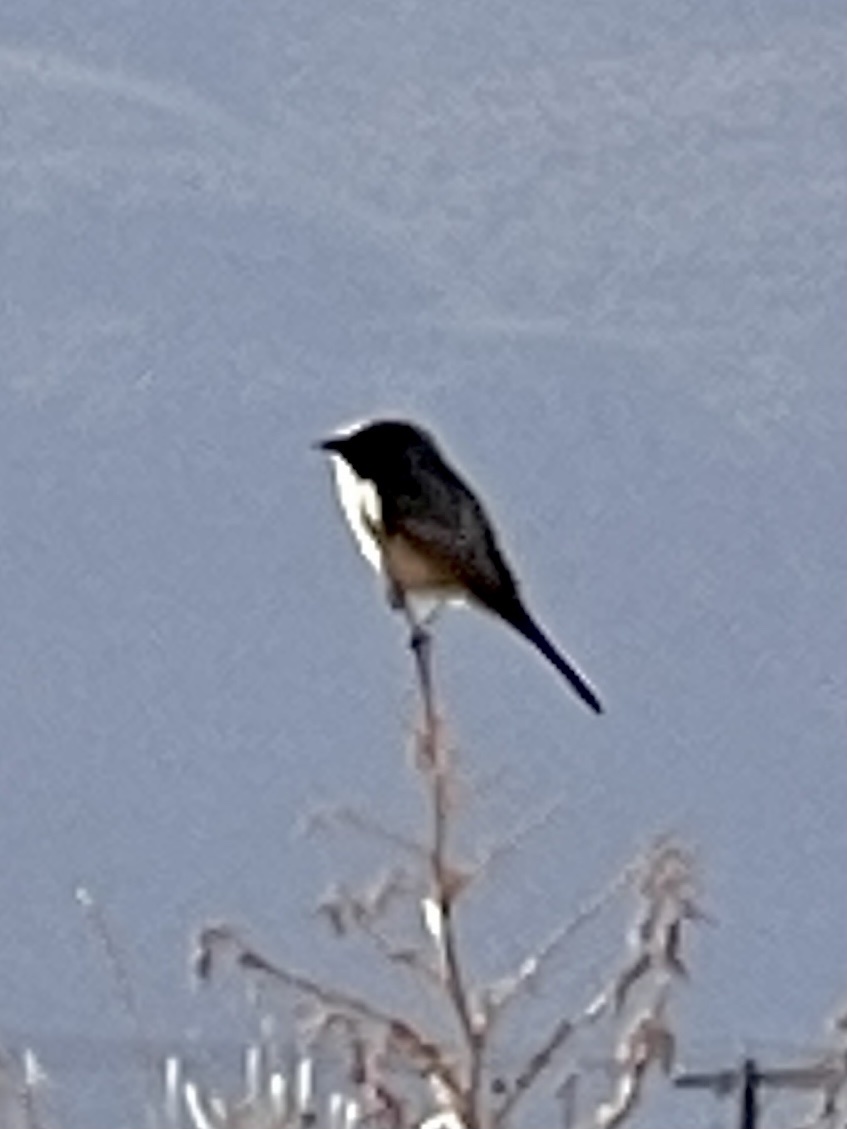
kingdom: Animalia
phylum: Chordata
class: Aves
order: Passeriformes
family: Tyrannidae
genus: Sayornis
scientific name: Sayornis saya
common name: Say's phoebe
